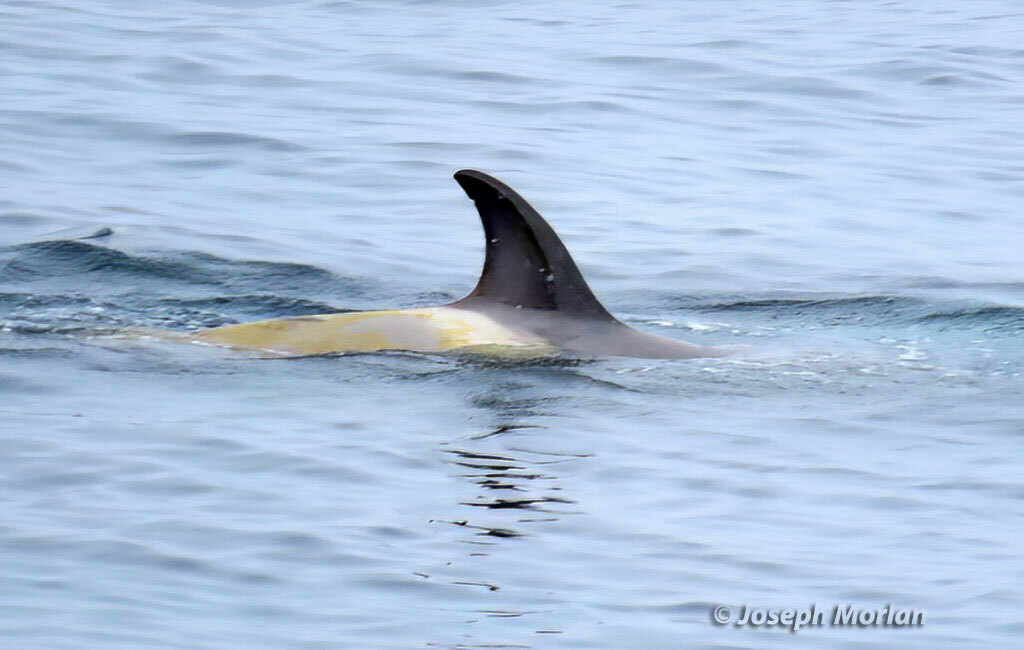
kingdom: Animalia
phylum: Chordata
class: Mammalia
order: Cetacea
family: Delphinidae
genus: Orcinus
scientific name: Orcinus orca
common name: Killer whale
